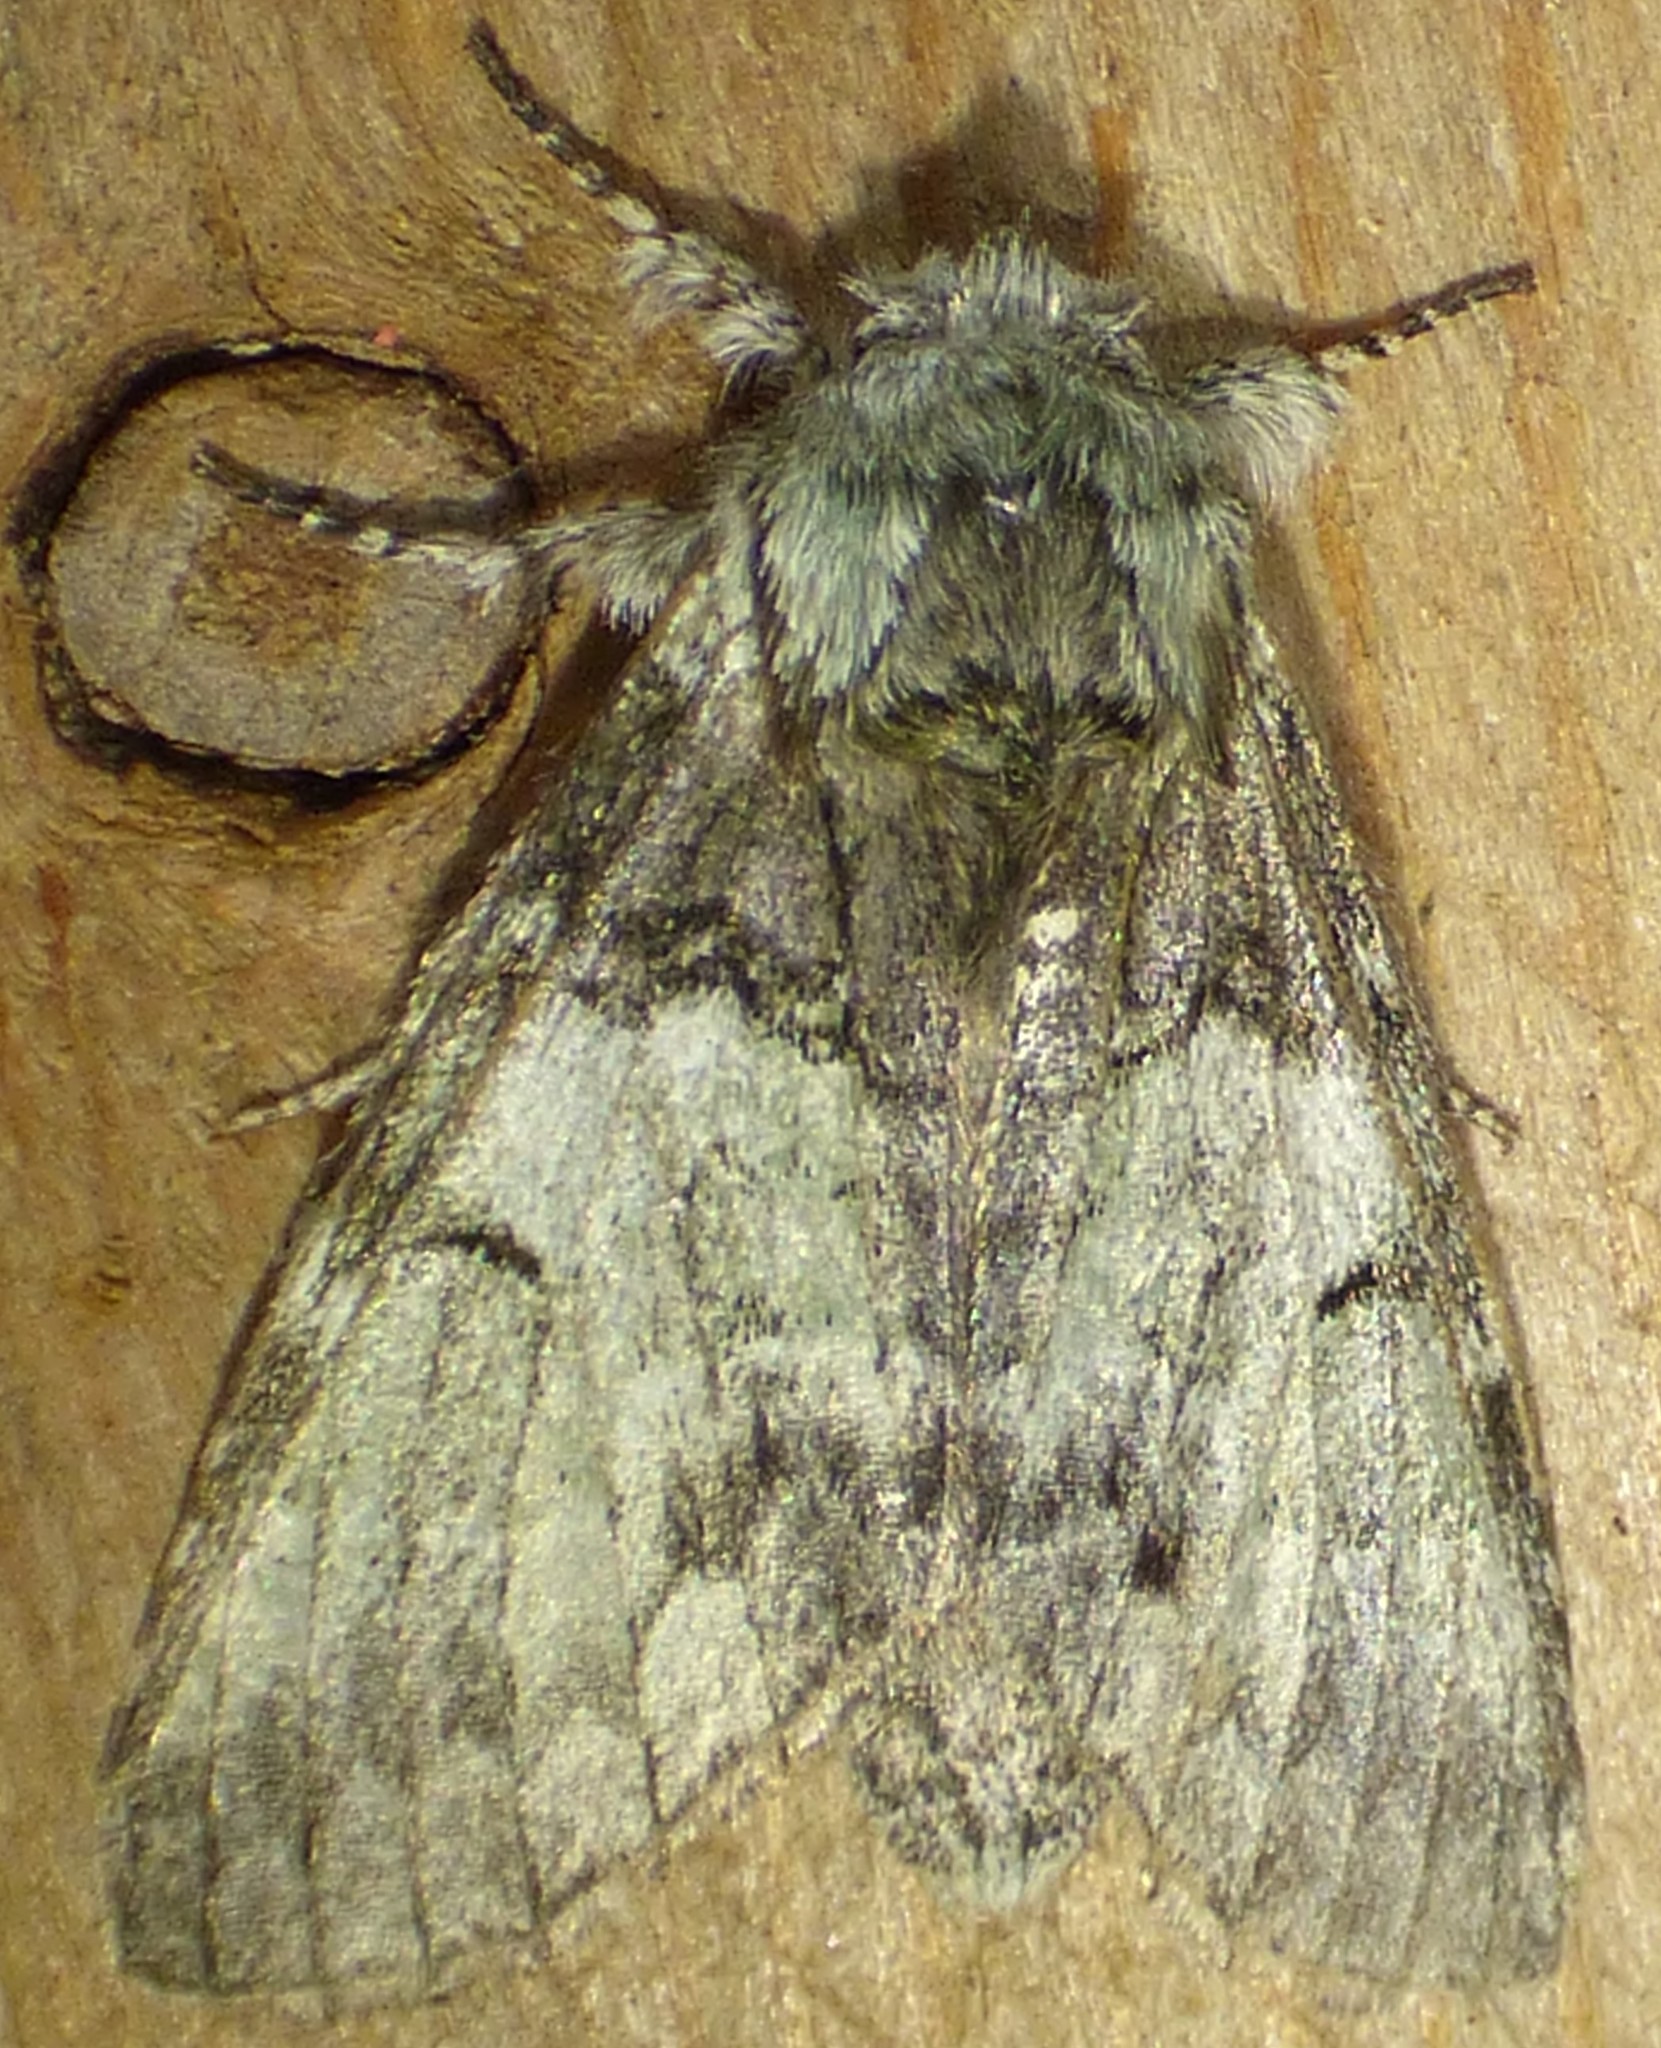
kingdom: Animalia
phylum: Arthropoda
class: Insecta
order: Lepidoptera
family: Notodontidae
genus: Macrurocampa
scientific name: Macrurocampa marthesia
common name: Mottled prominent
